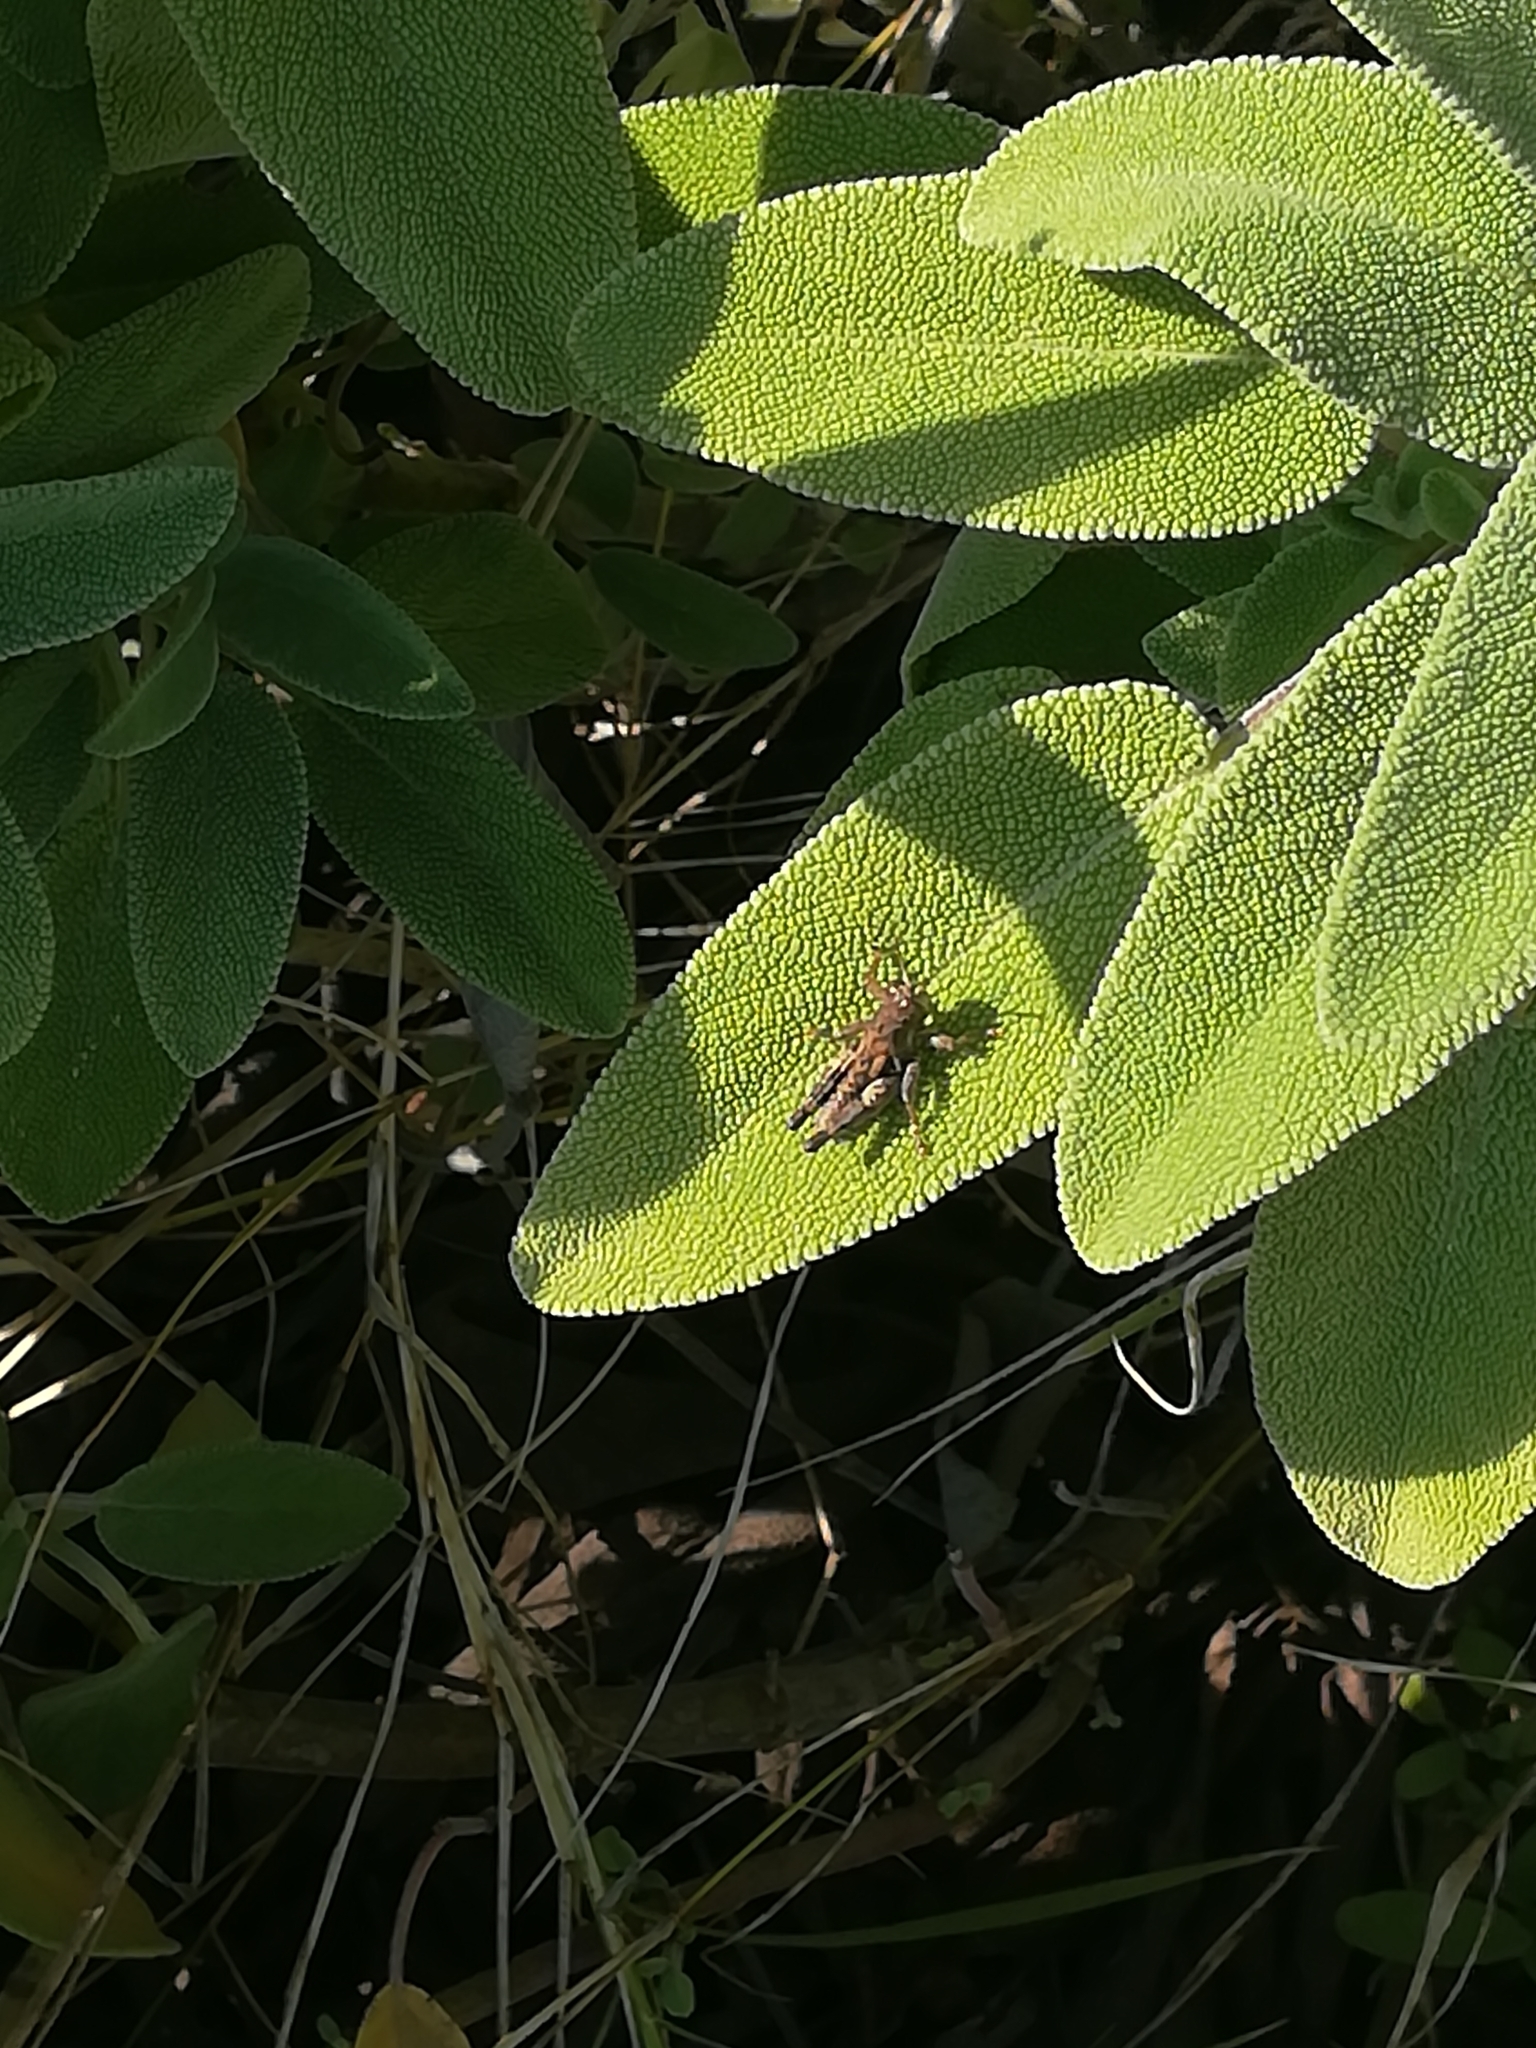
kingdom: Animalia
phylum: Arthropoda
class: Insecta
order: Orthoptera
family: Acrididae
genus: Pezotettix
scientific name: Pezotettix giornae
